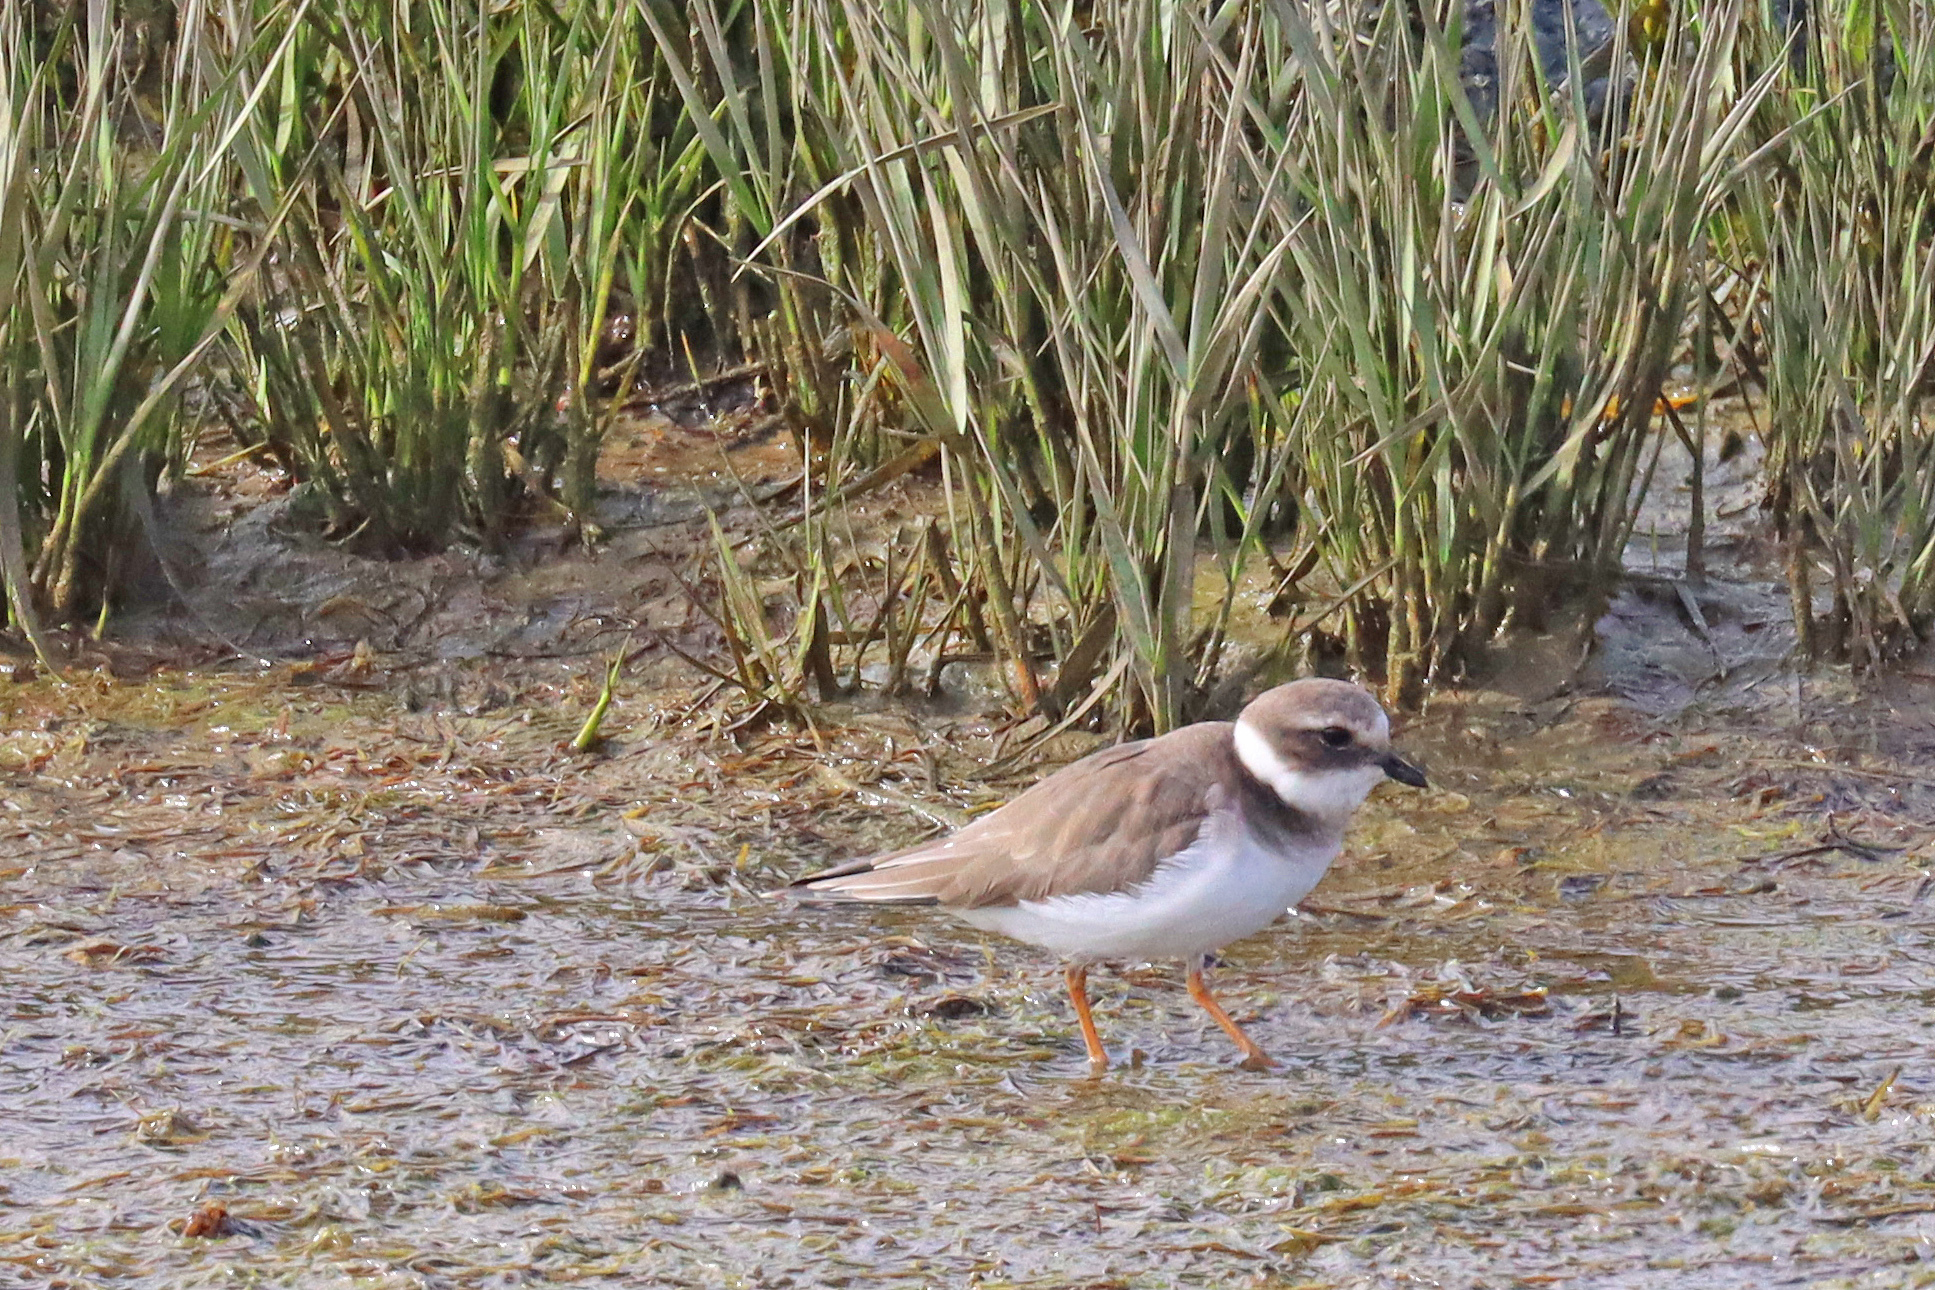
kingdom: Animalia
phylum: Chordata
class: Aves
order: Charadriiformes
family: Charadriidae
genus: Charadrius
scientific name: Charadrius hiaticula
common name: Common ringed plover
